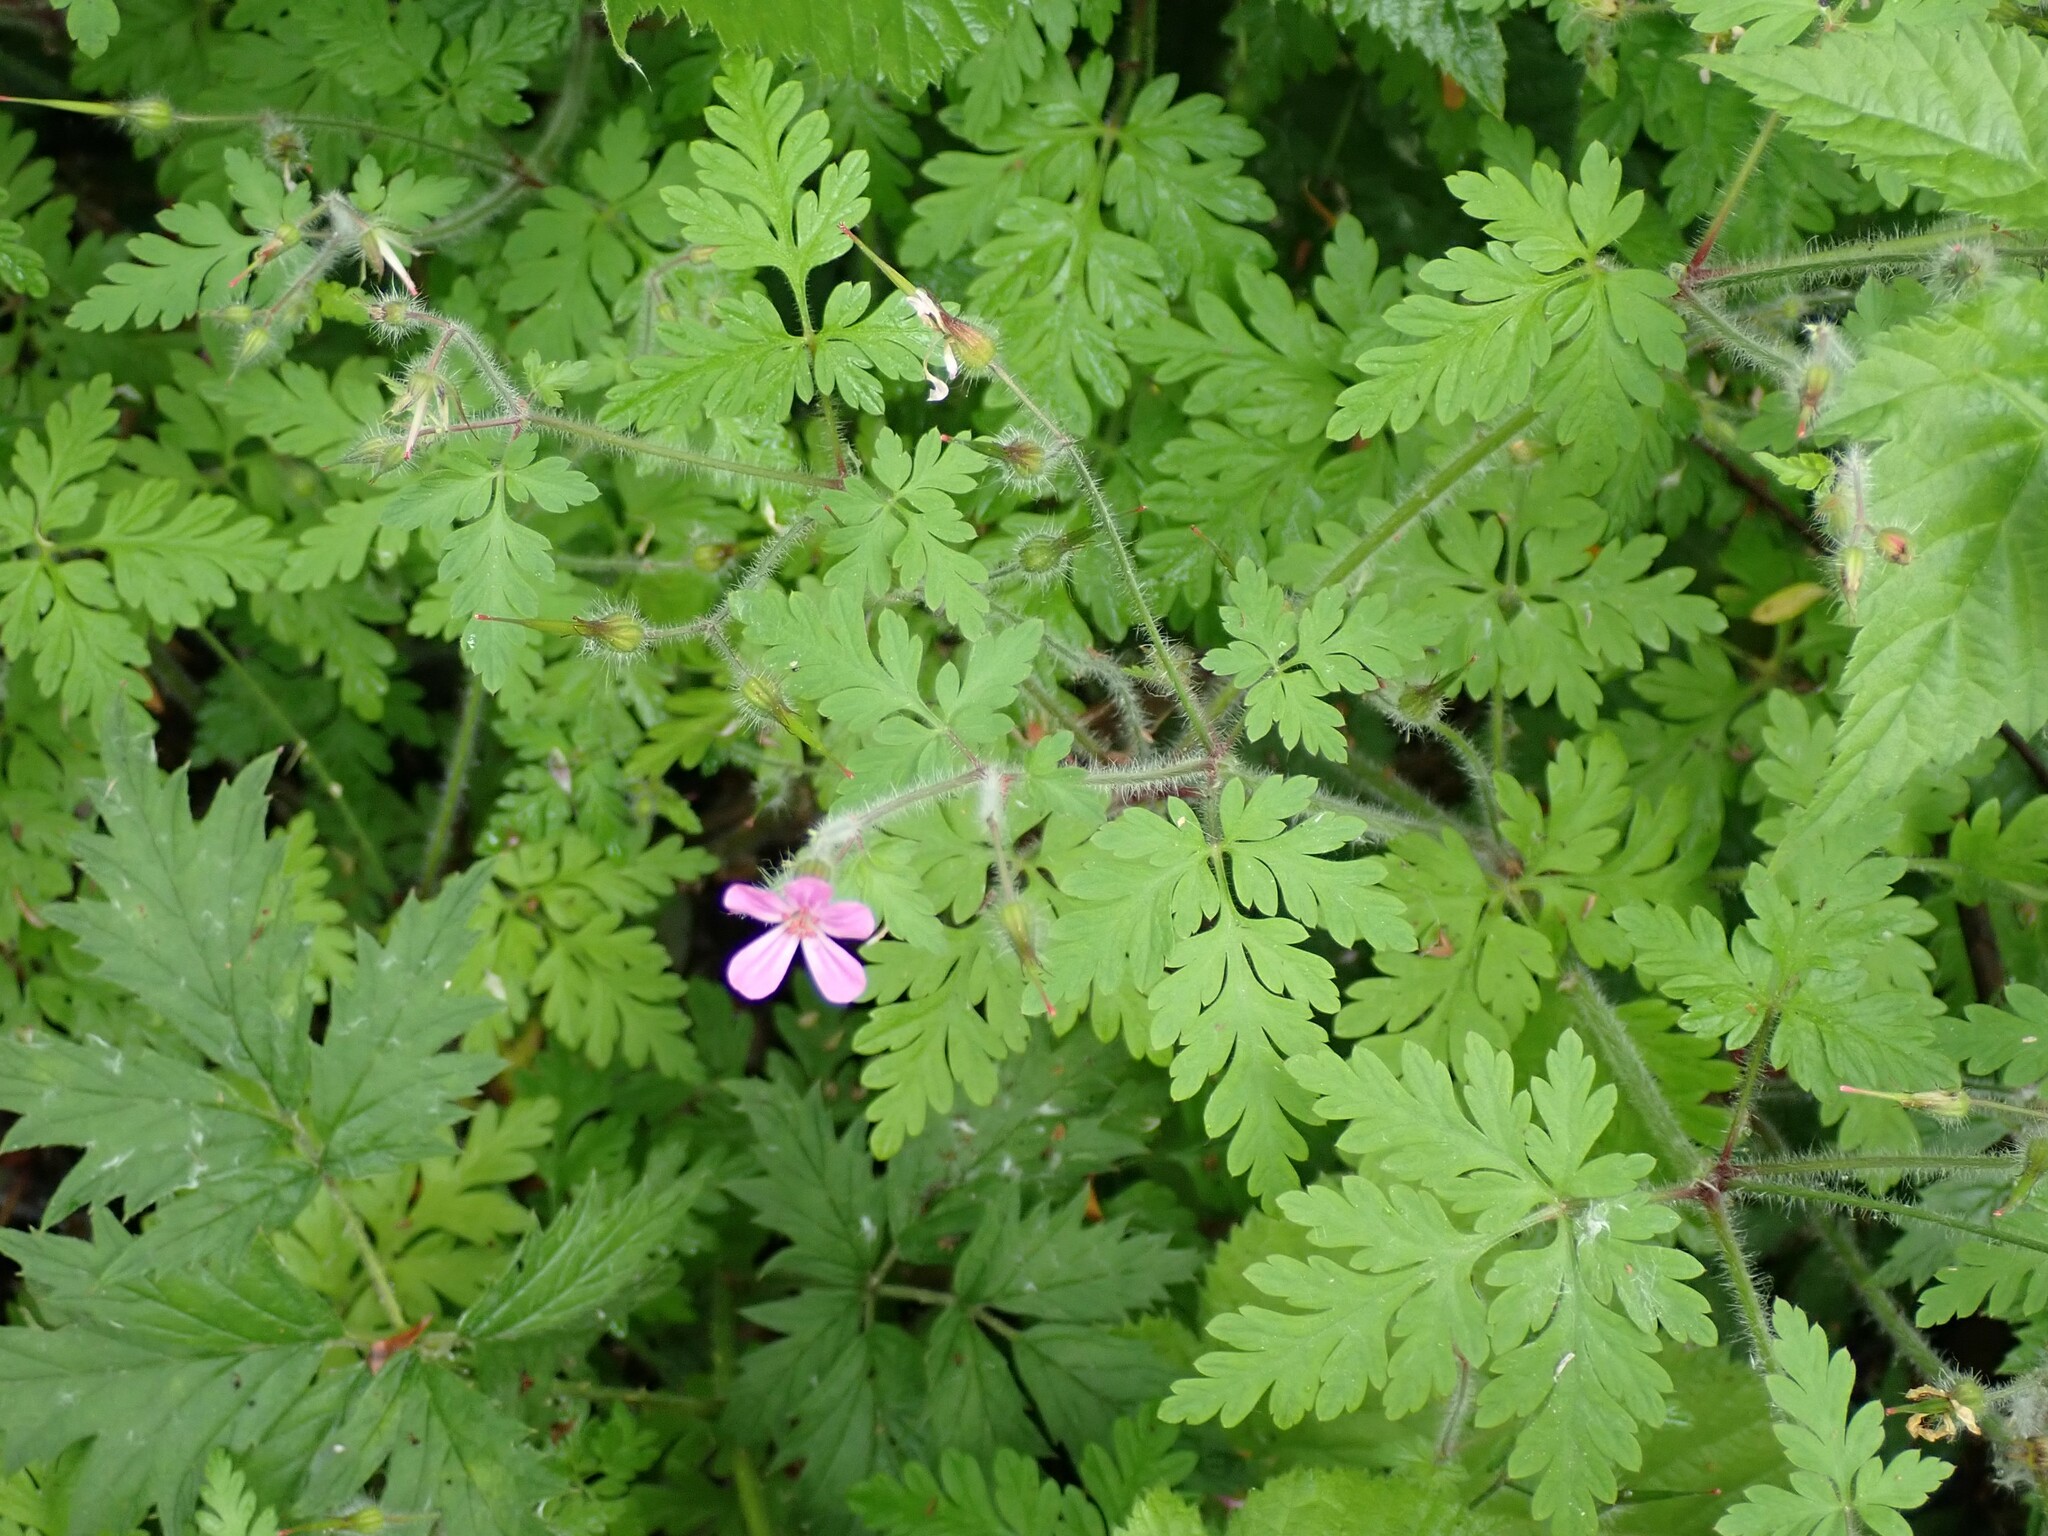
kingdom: Plantae
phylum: Tracheophyta
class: Magnoliopsida
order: Geraniales
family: Geraniaceae
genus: Geranium
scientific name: Geranium robertianum
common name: Herb-robert
